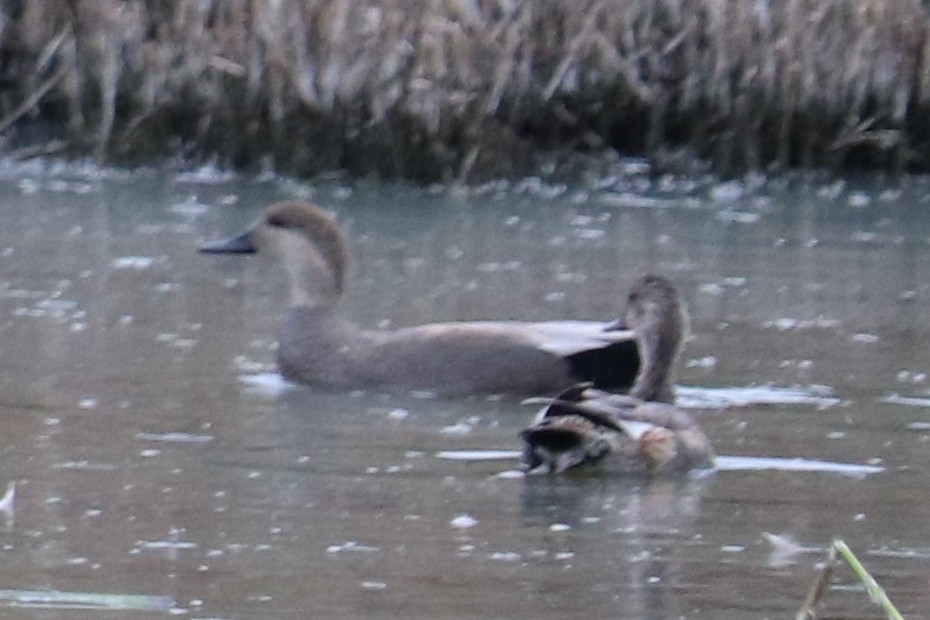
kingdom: Animalia
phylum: Chordata
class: Aves
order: Anseriformes
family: Anatidae
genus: Mareca
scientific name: Mareca strepera
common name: Gadwall
